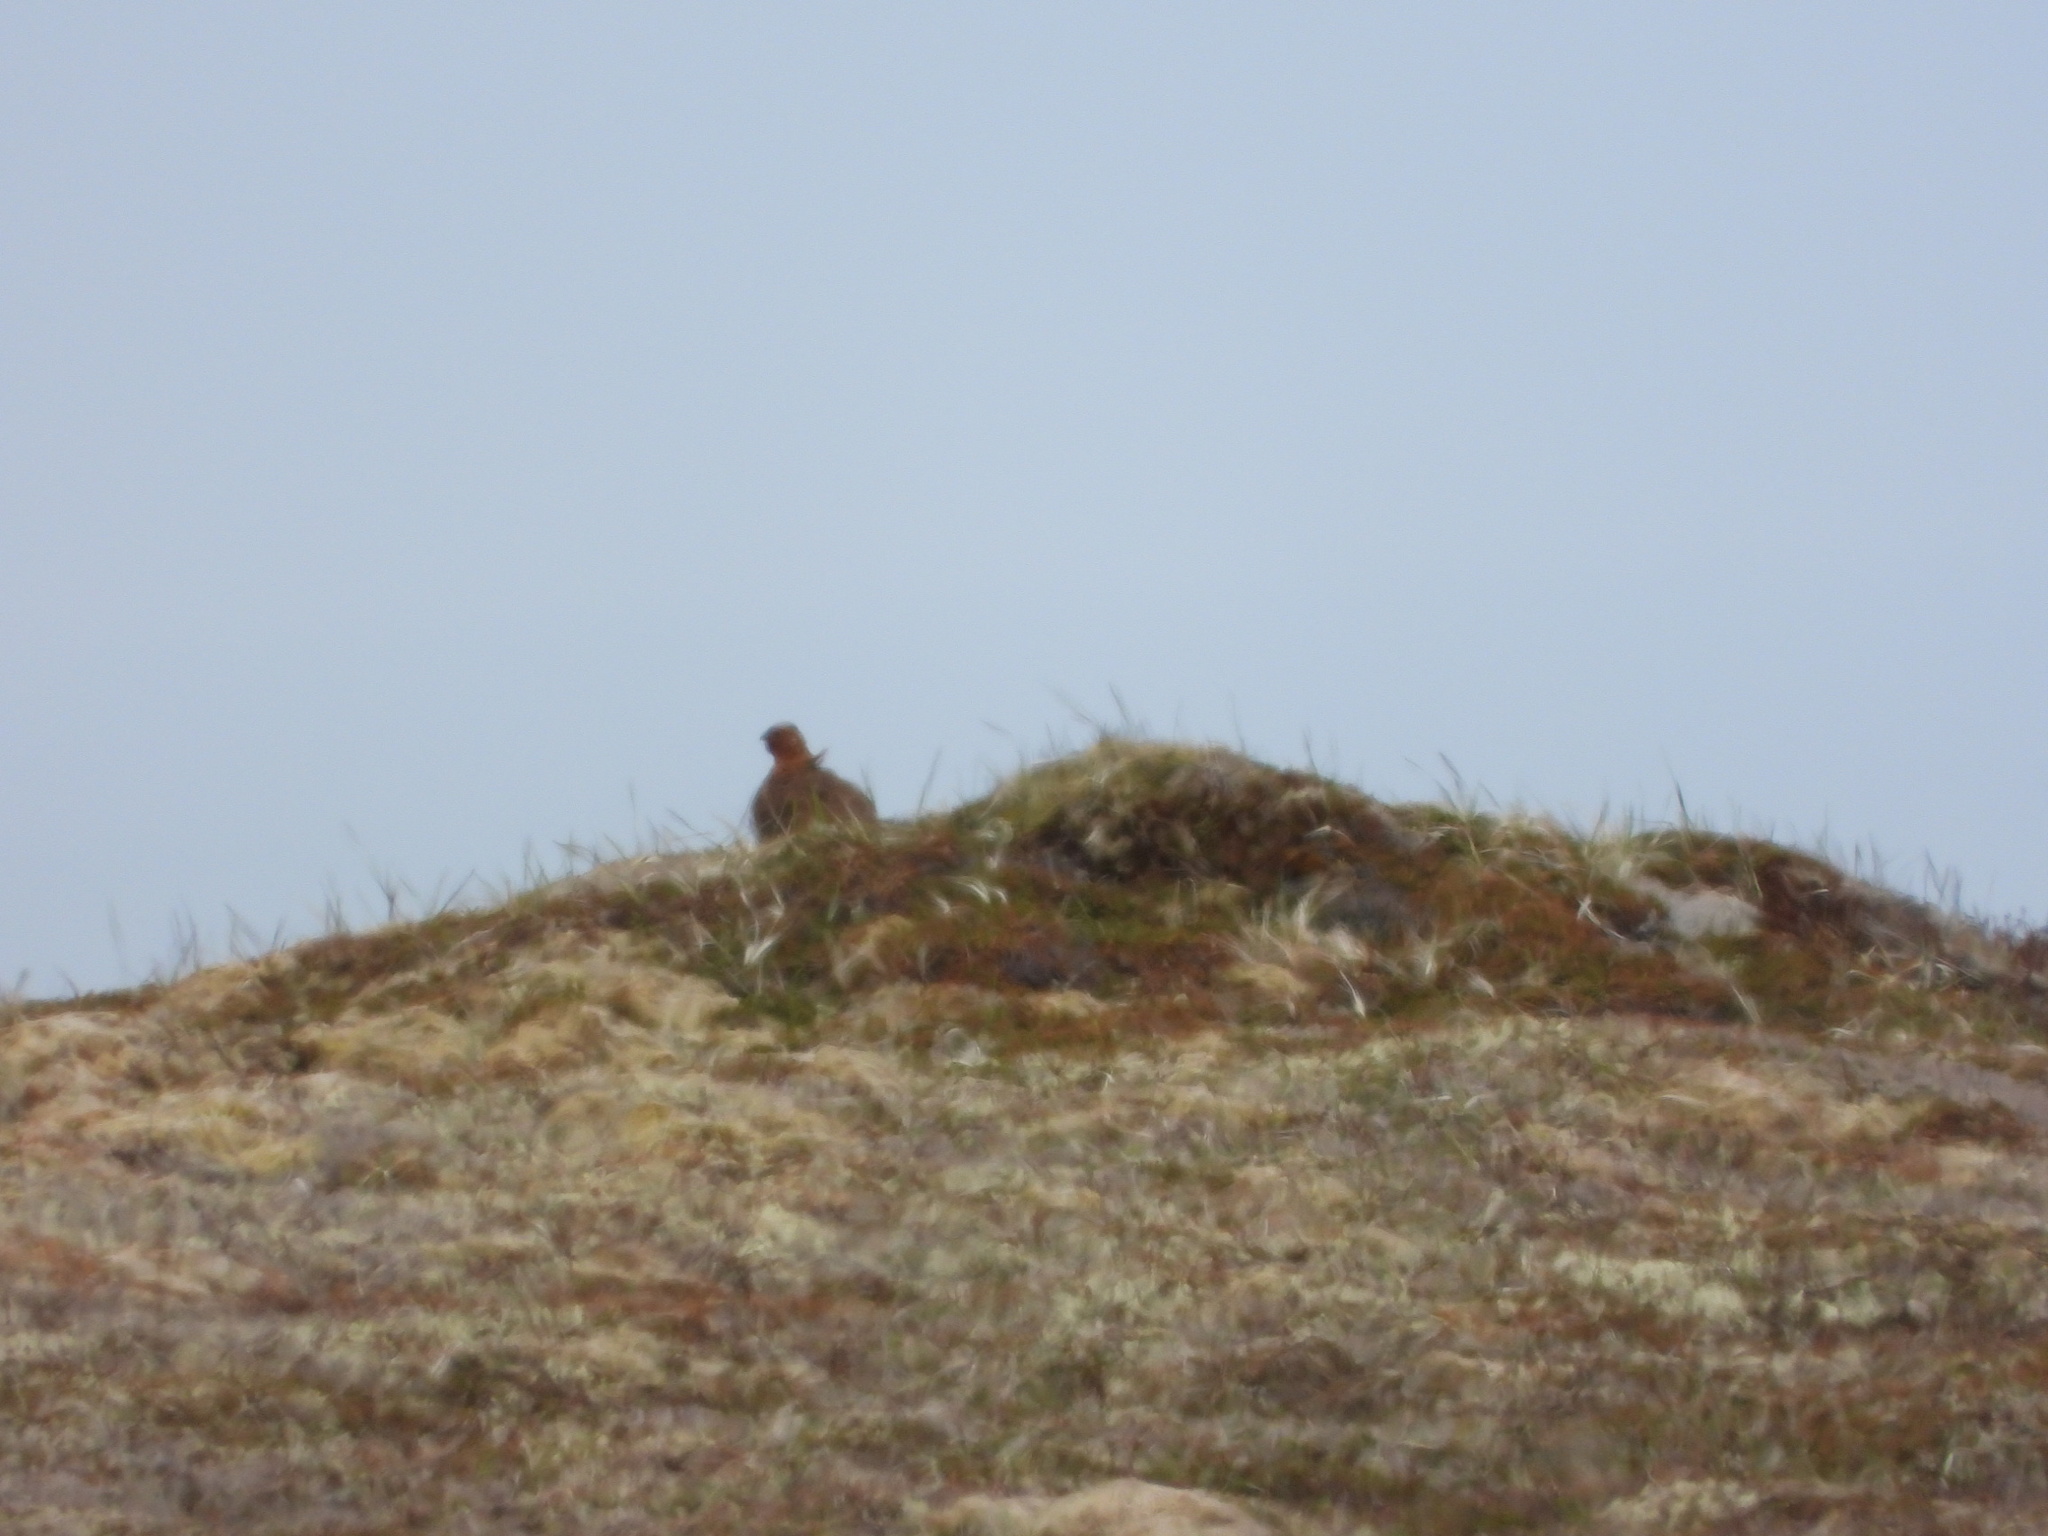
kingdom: Animalia
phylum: Chordata
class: Aves
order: Galliformes
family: Phasianidae
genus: Lagopus
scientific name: Lagopus lagopus
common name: Willow ptarmigan
